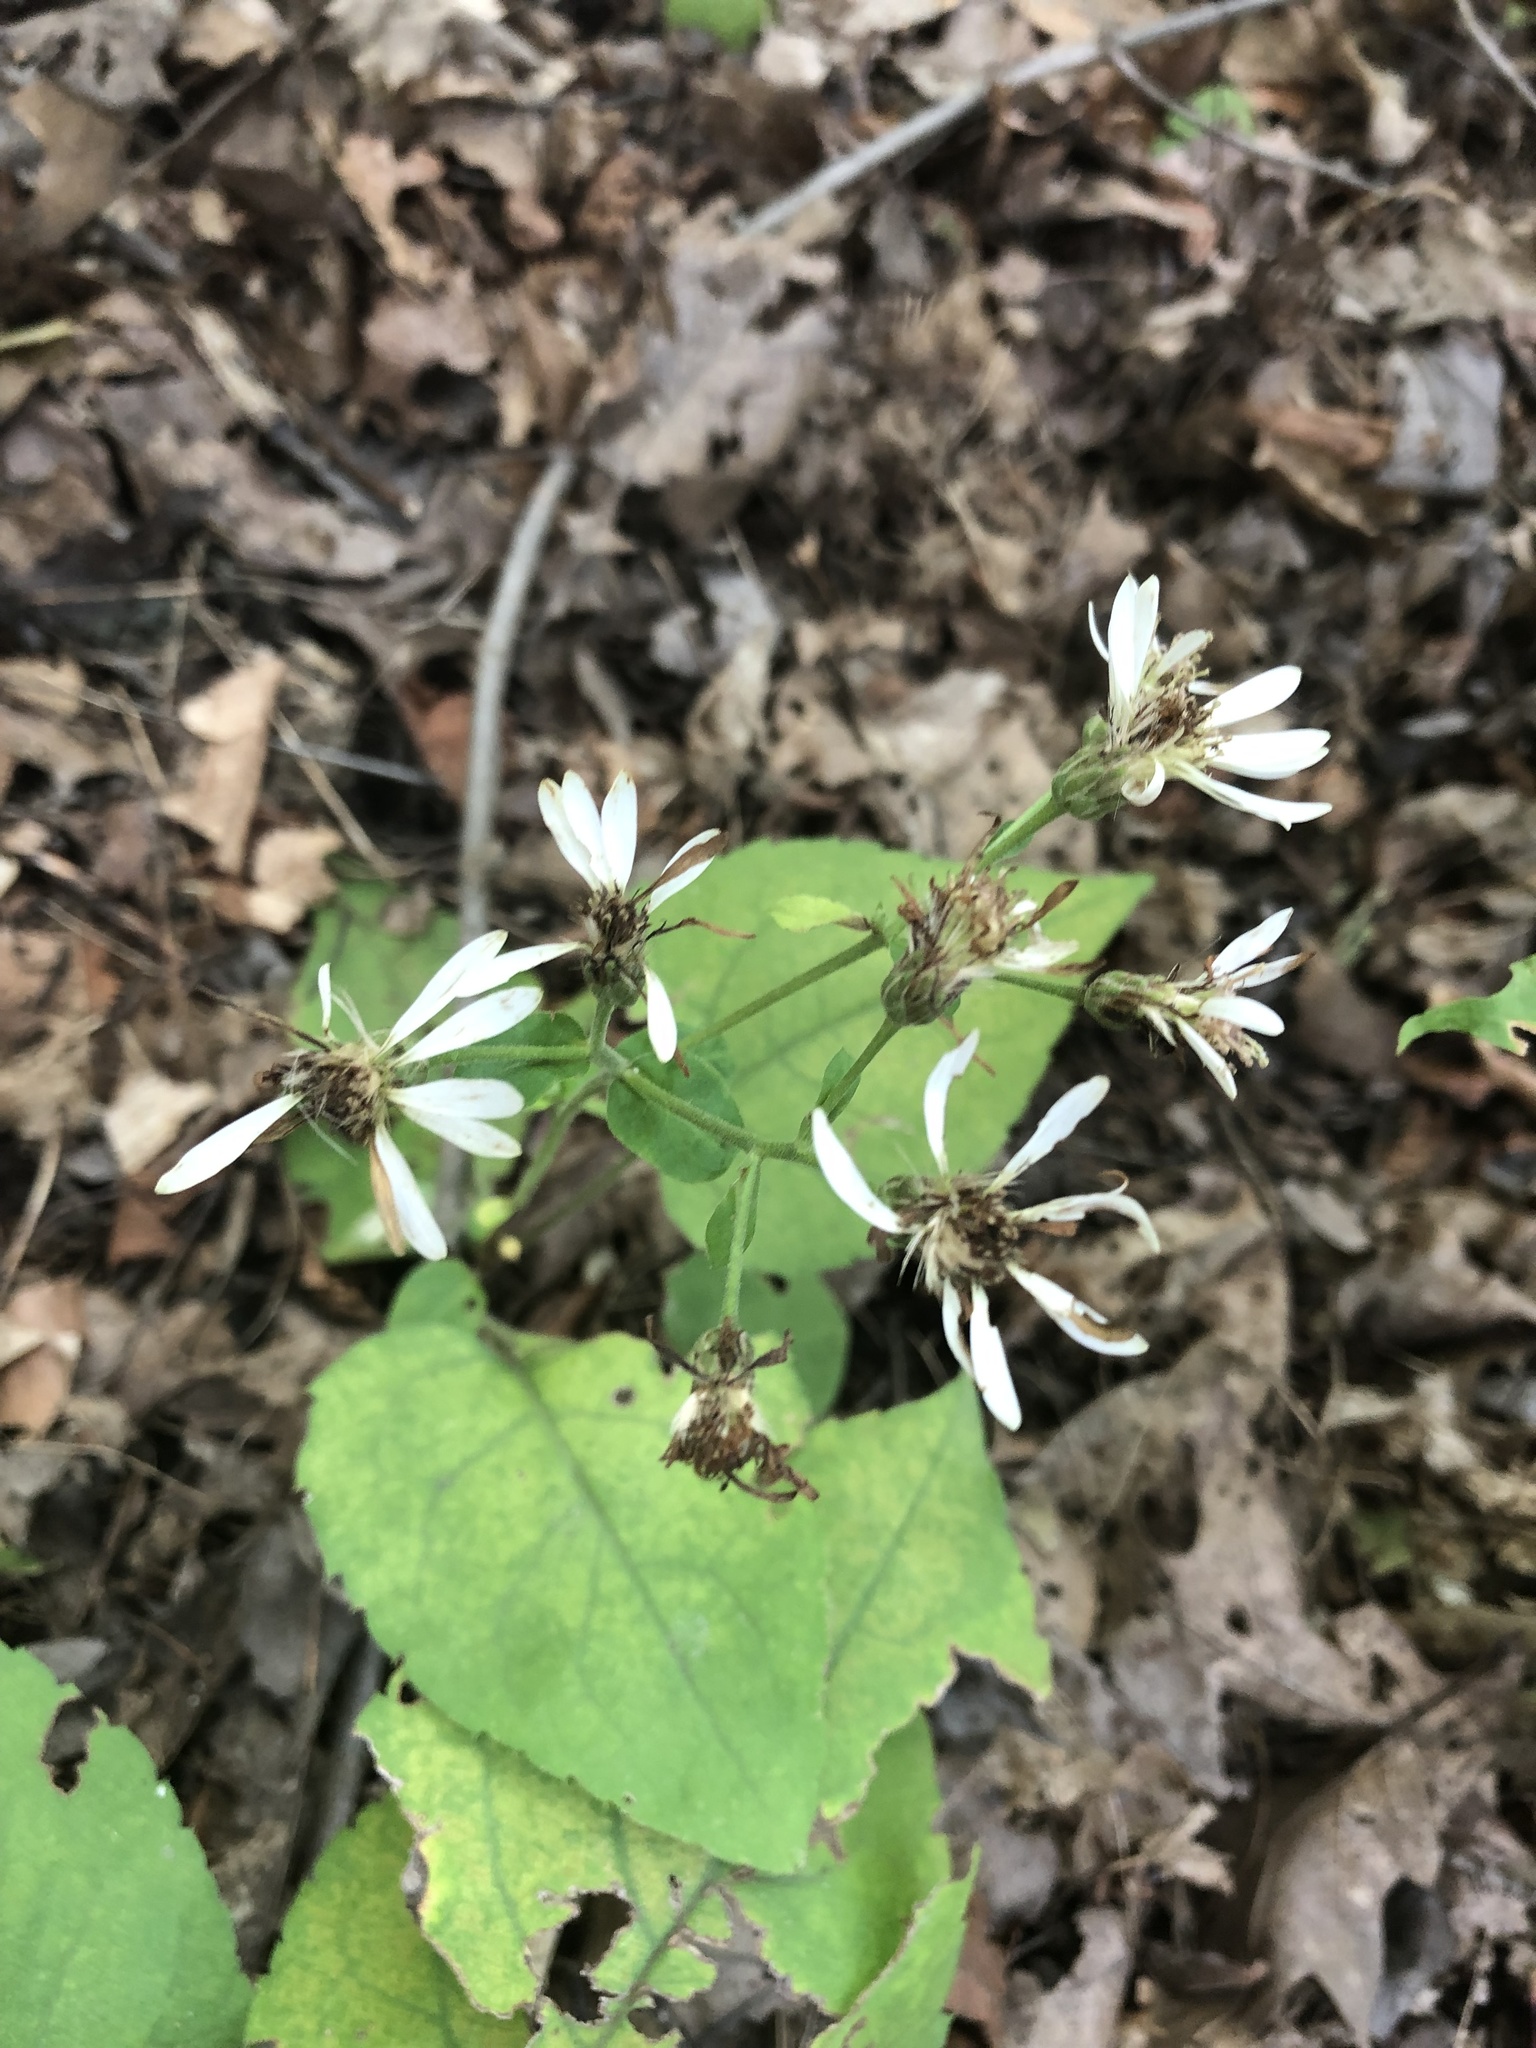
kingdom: Plantae
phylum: Tracheophyta
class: Magnoliopsida
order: Asterales
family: Asteraceae
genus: Eurybia
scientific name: Eurybia macrophylla
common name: Big-leaved aster
